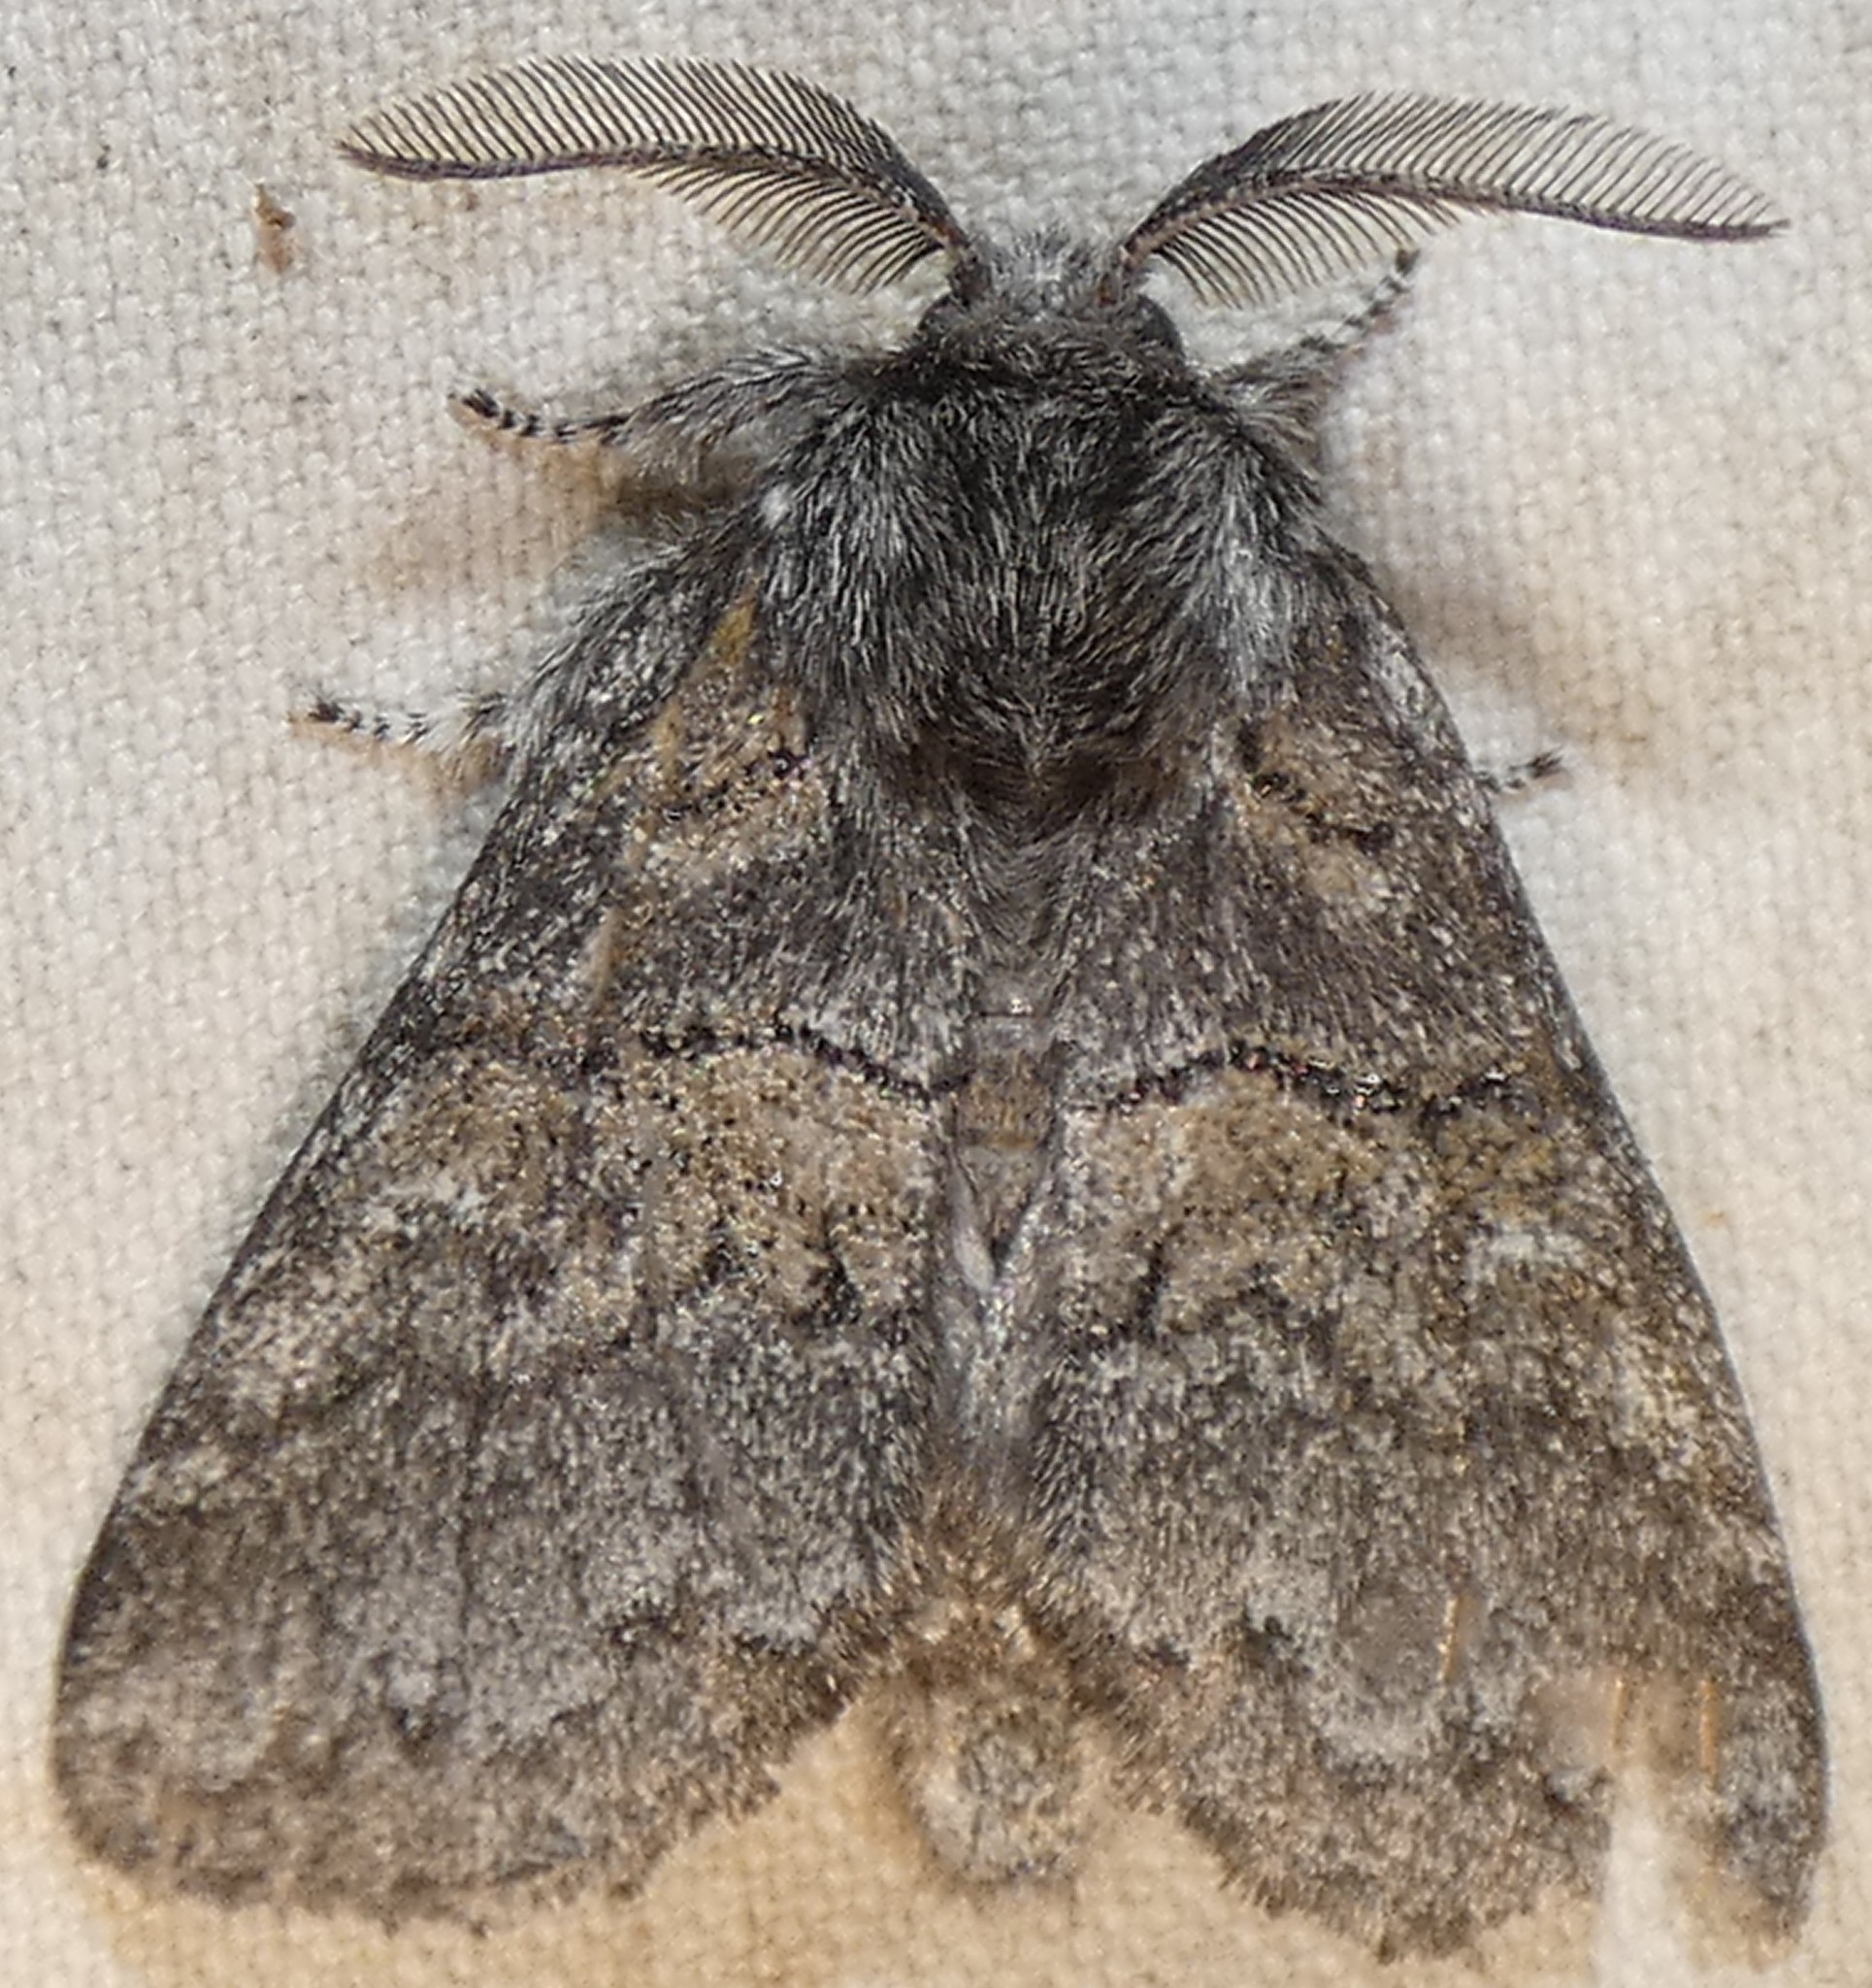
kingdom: Animalia
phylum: Arthropoda
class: Insecta
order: Lepidoptera
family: Notodontidae
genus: Gluphisia
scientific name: Gluphisia septentrionis
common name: Common gluphisia
